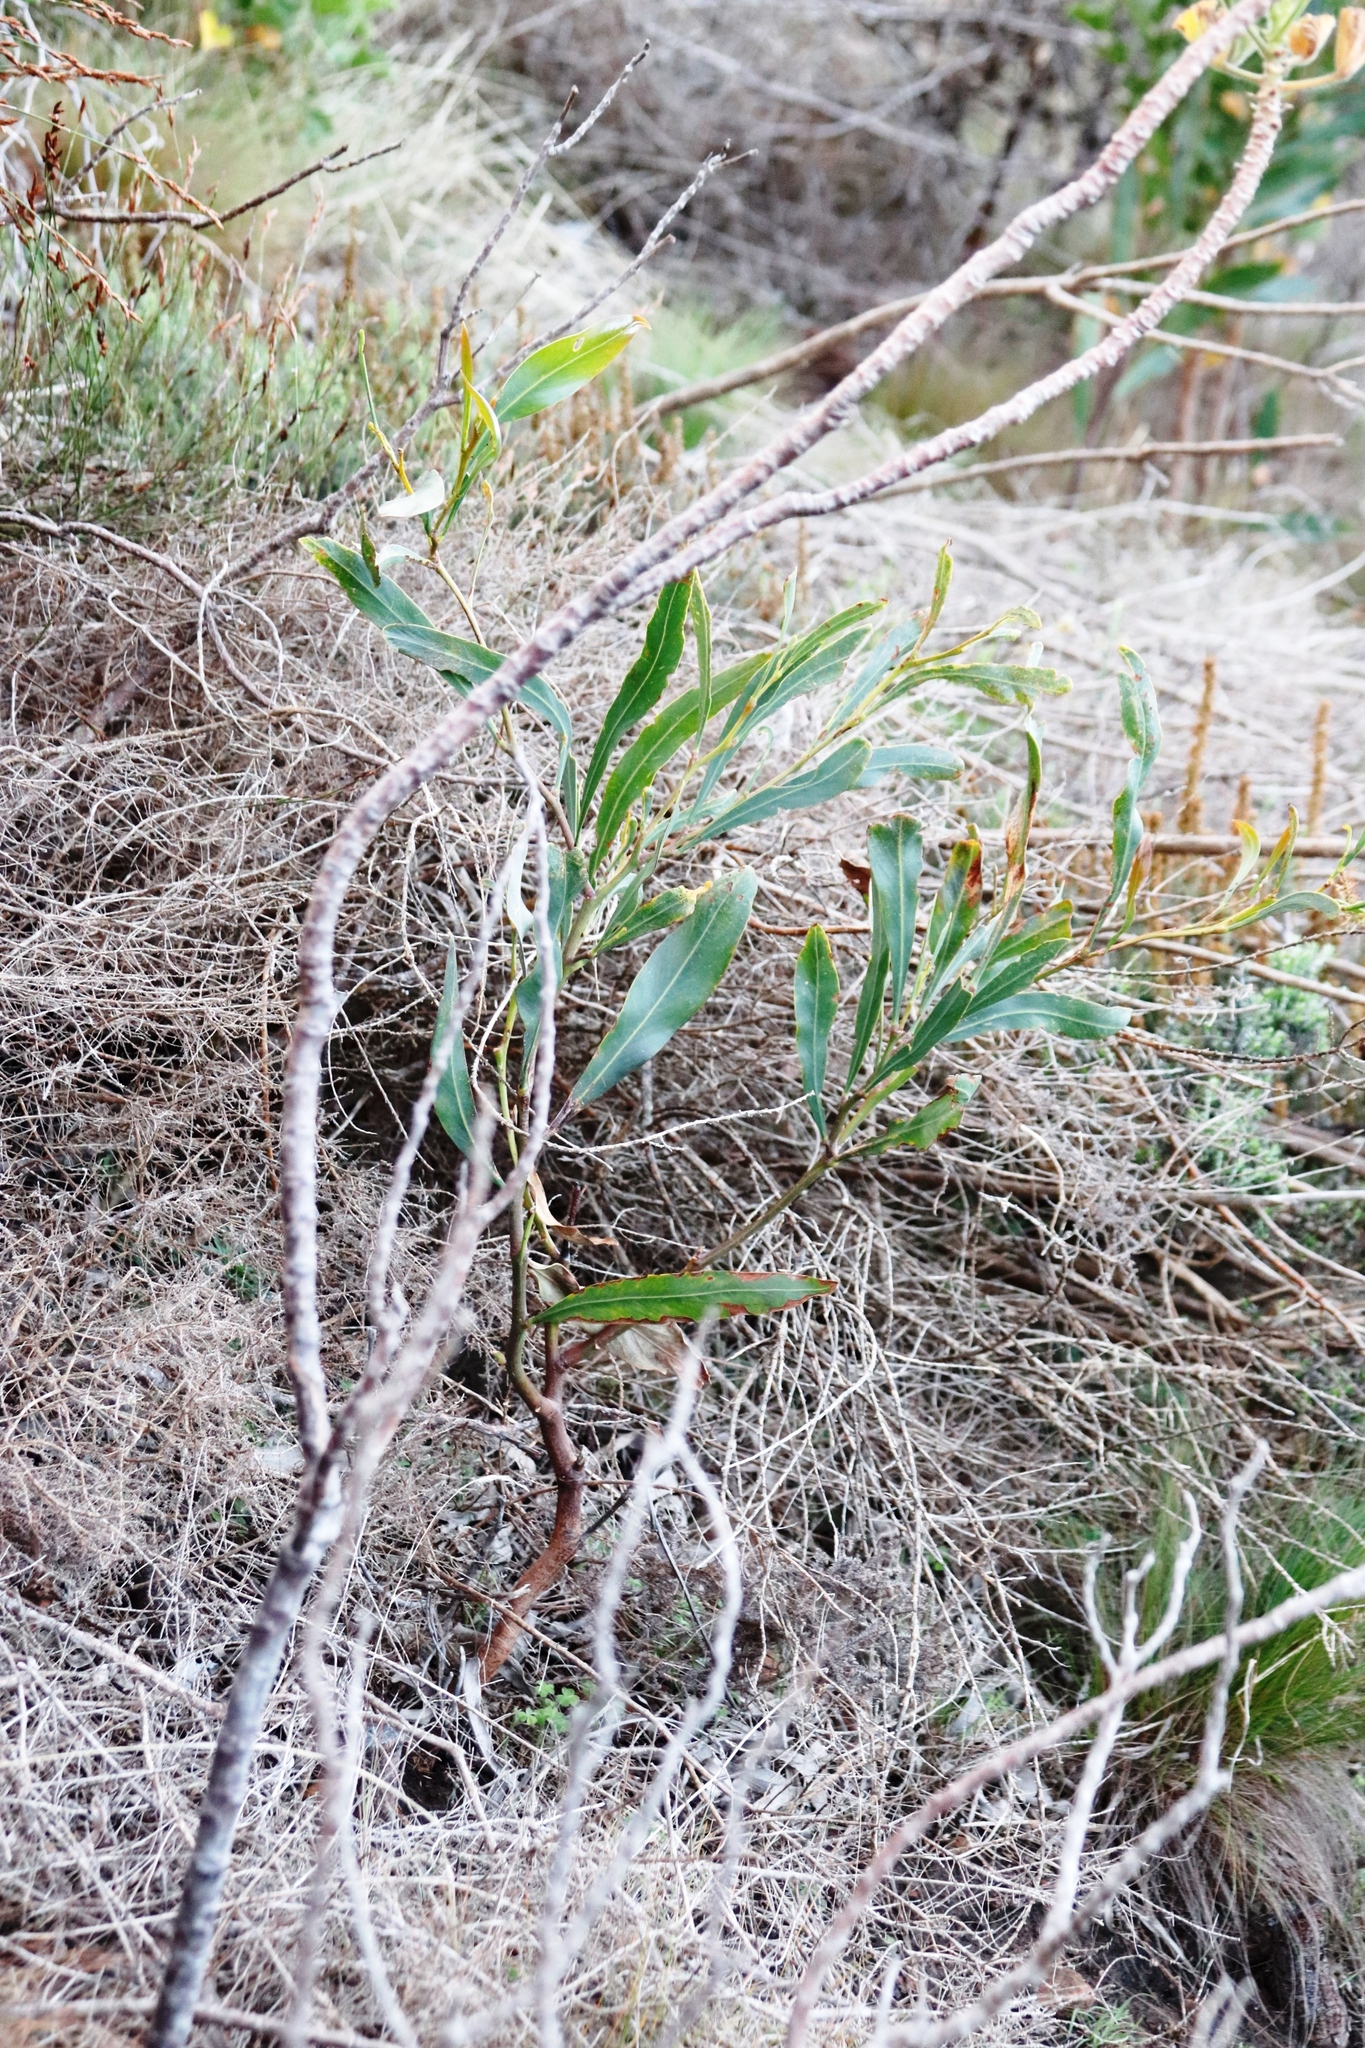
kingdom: Plantae
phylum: Tracheophyta
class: Magnoliopsida
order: Fabales
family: Fabaceae
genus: Acacia
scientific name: Acacia saligna
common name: Orange wattle
